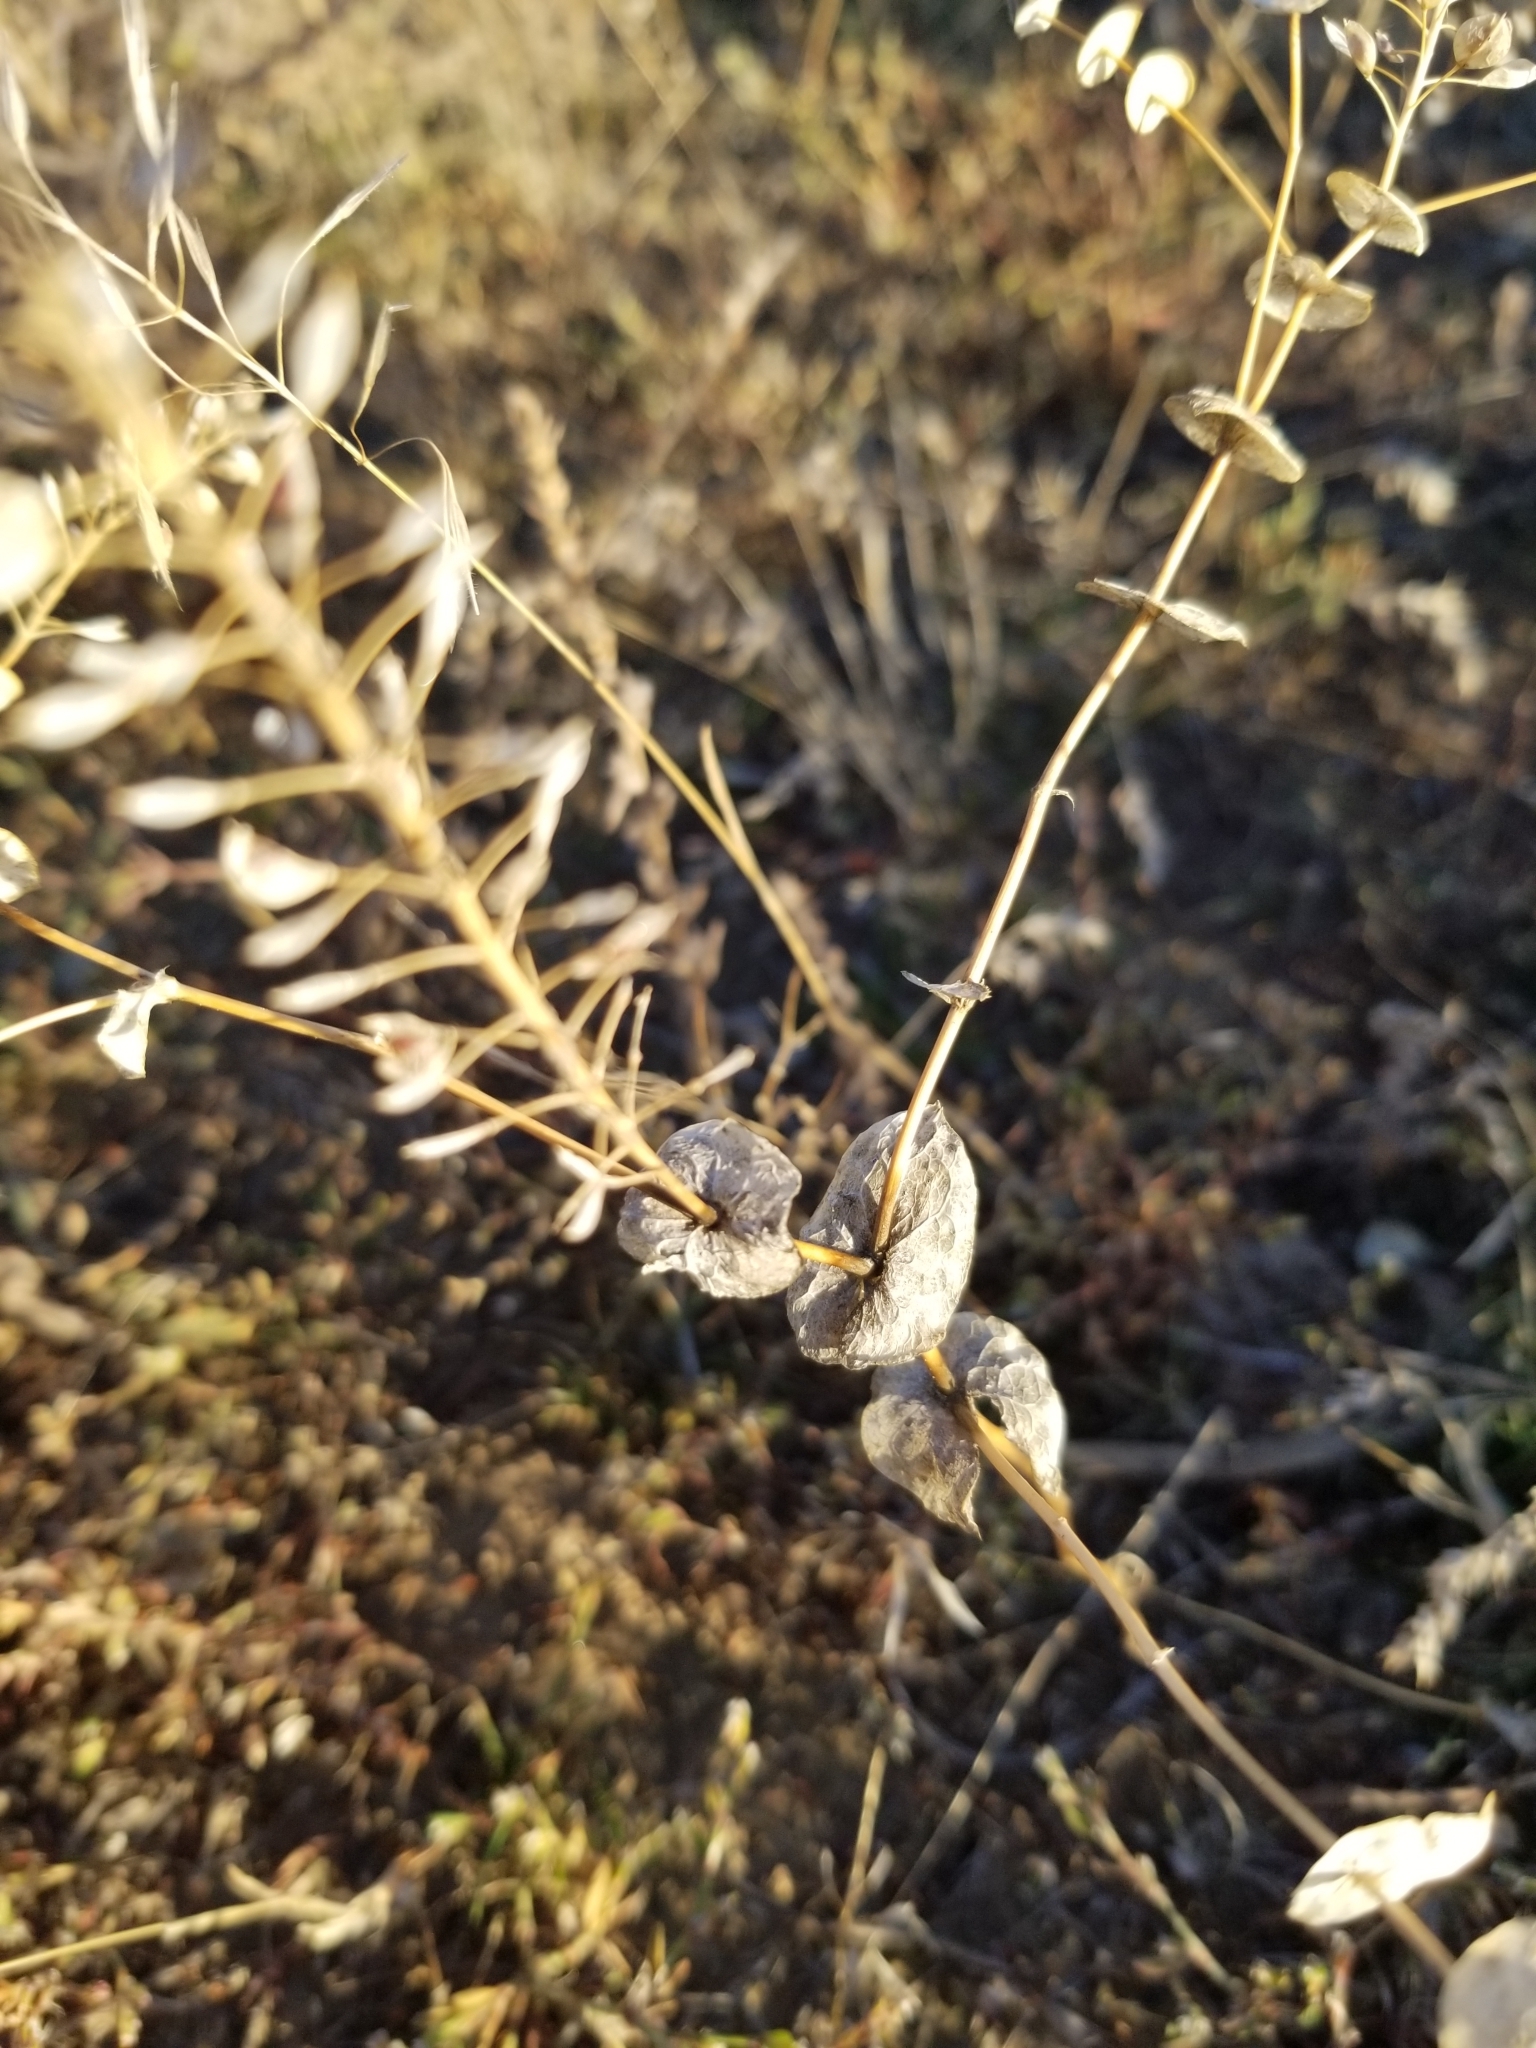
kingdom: Plantae
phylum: Tracheophyta
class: Magnoliopsida
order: Brassicales
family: Brassicaceae
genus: Lepidium
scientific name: Lepidium perfoliatum
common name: Perfoliate pepperwort
